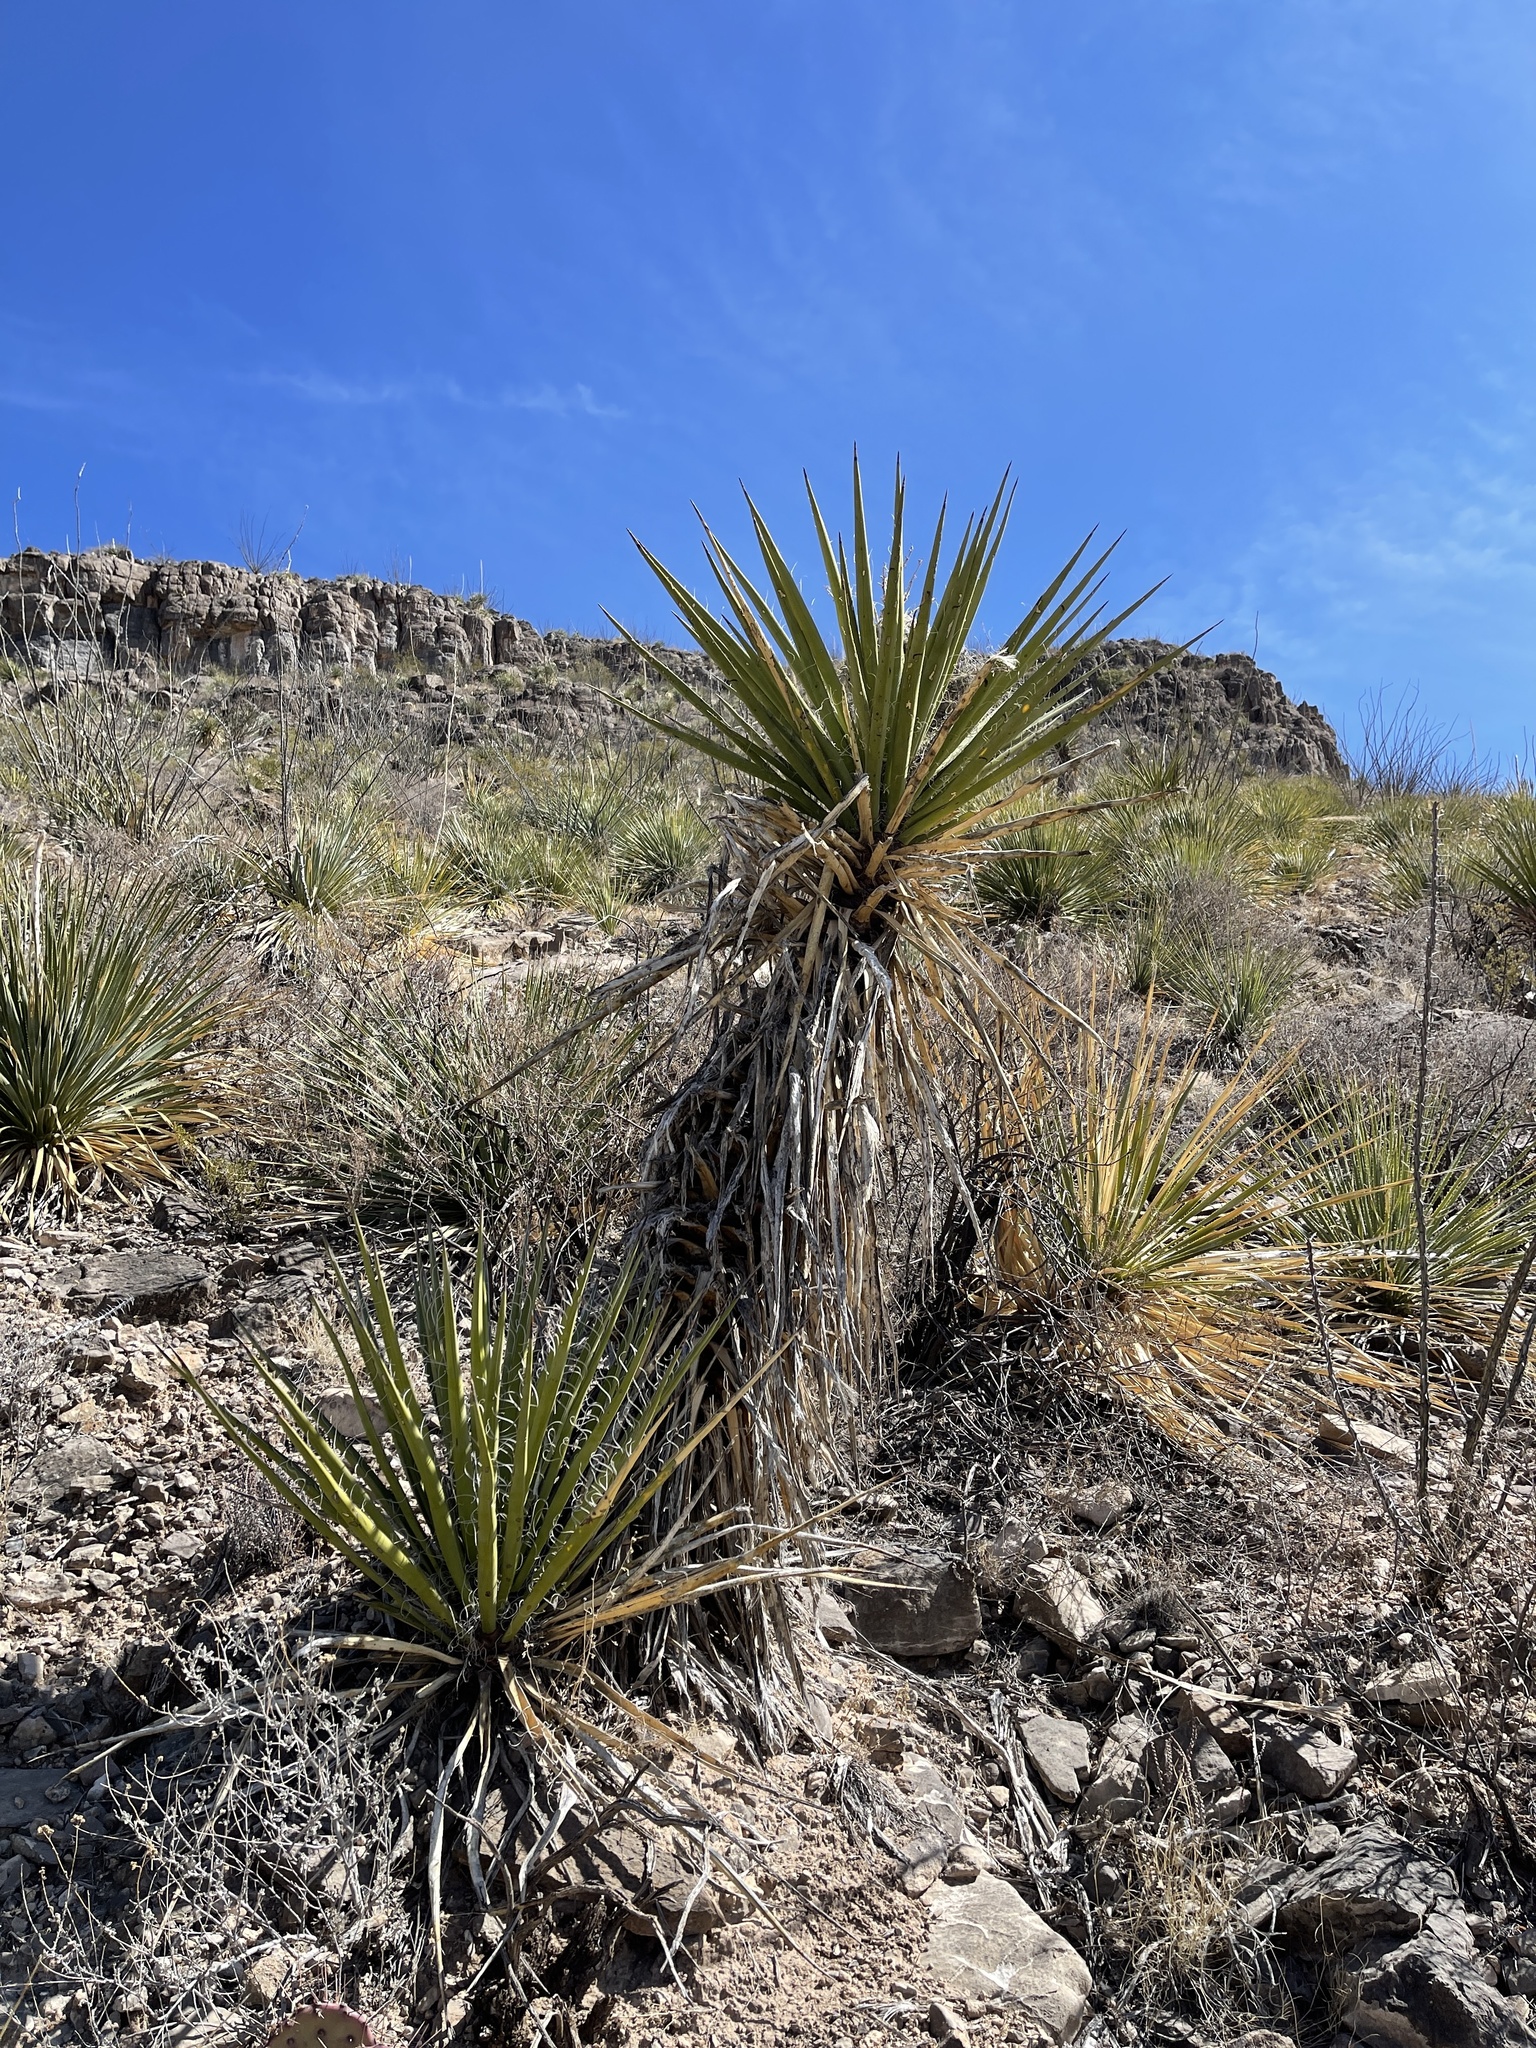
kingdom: Plantae
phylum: Tracheophyta
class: Liliopsida
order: Asparagales
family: Asparagaceae
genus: Yucca
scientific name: Yucca treculiana
